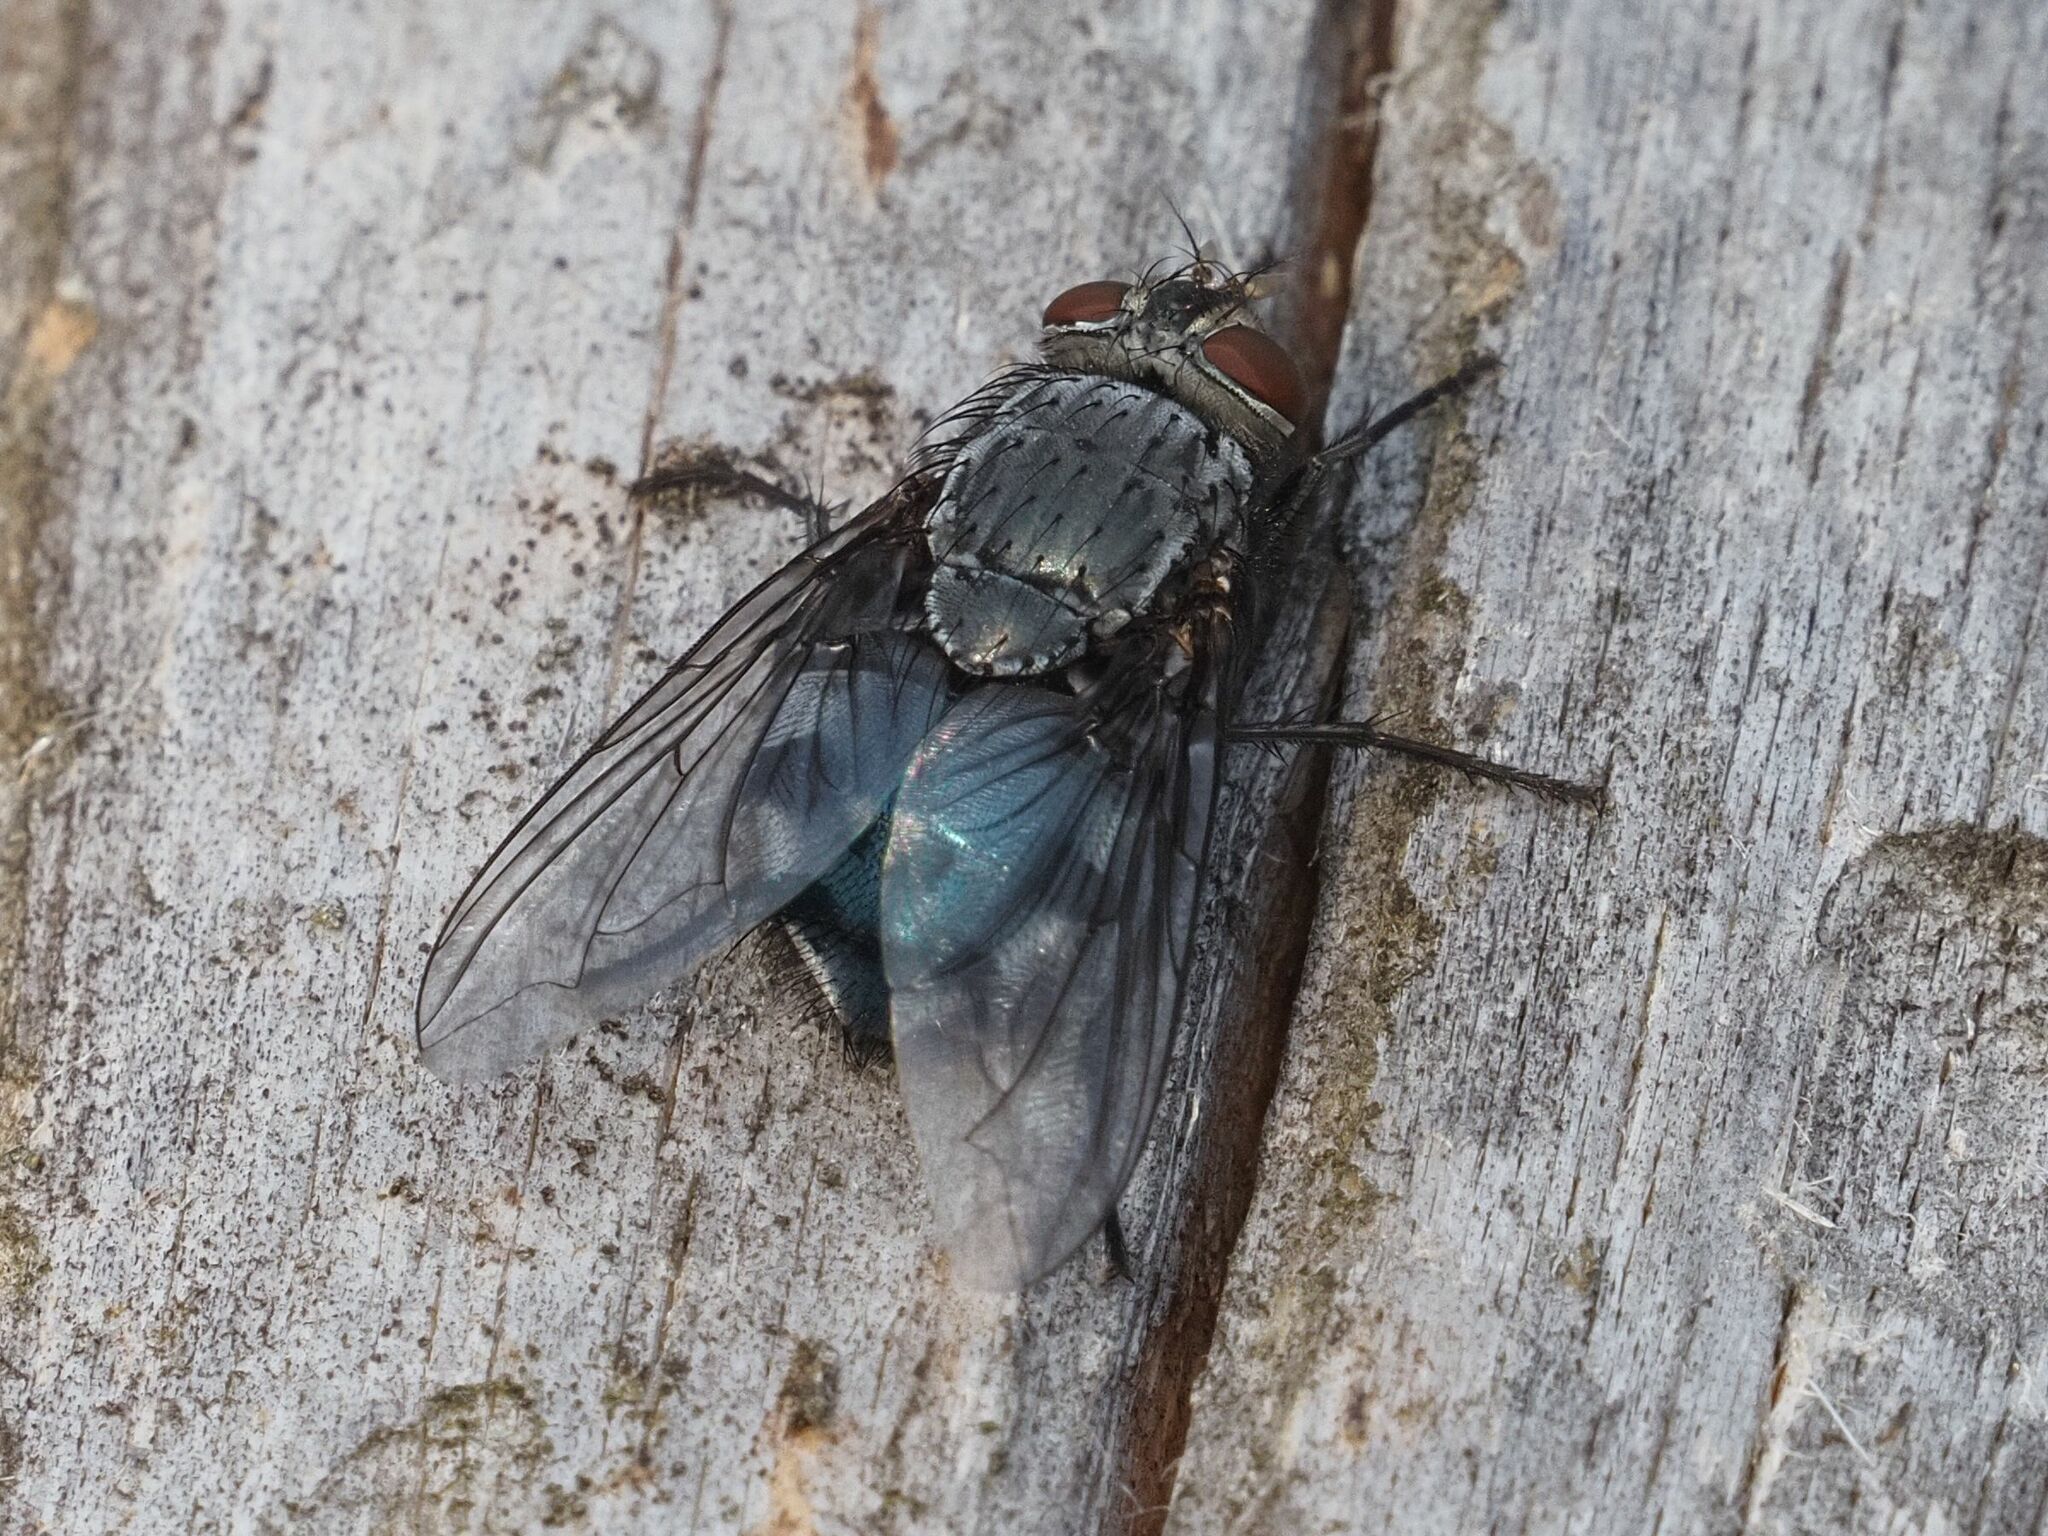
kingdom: Animalia
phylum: Arthropoda
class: Insecta
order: Diptera
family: Calliphoridae
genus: Calliphora
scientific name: Calliphora vicina
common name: Common blow flie
